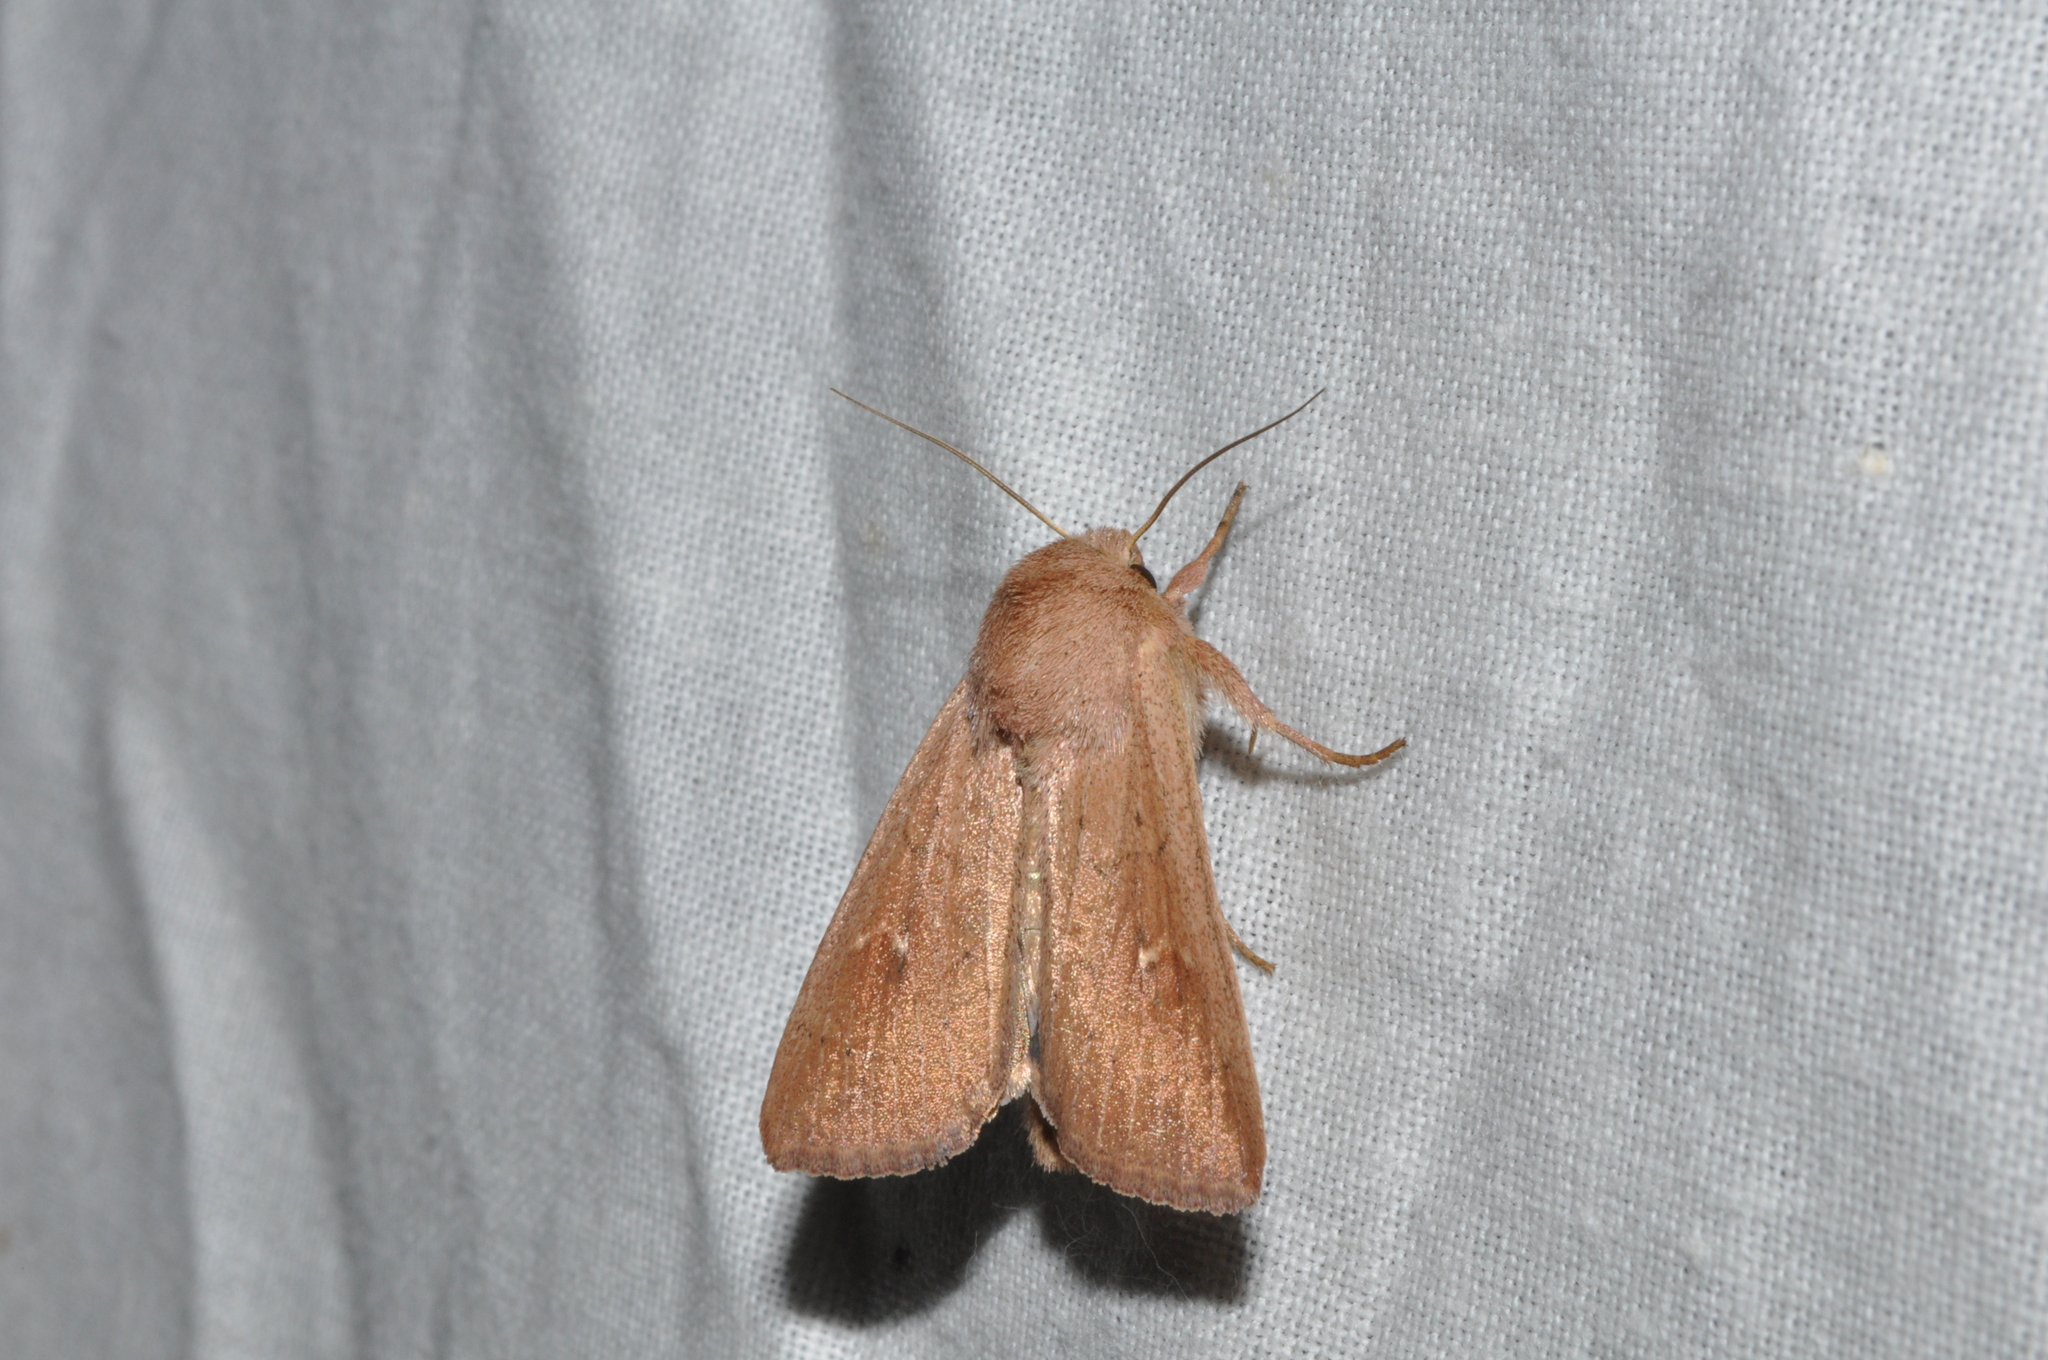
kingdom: Animalia
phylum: Arthropoda
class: Insecta
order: Lepidoptera
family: Noctuidae
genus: Mythimna
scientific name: Mythimna ferrago
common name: Clay
